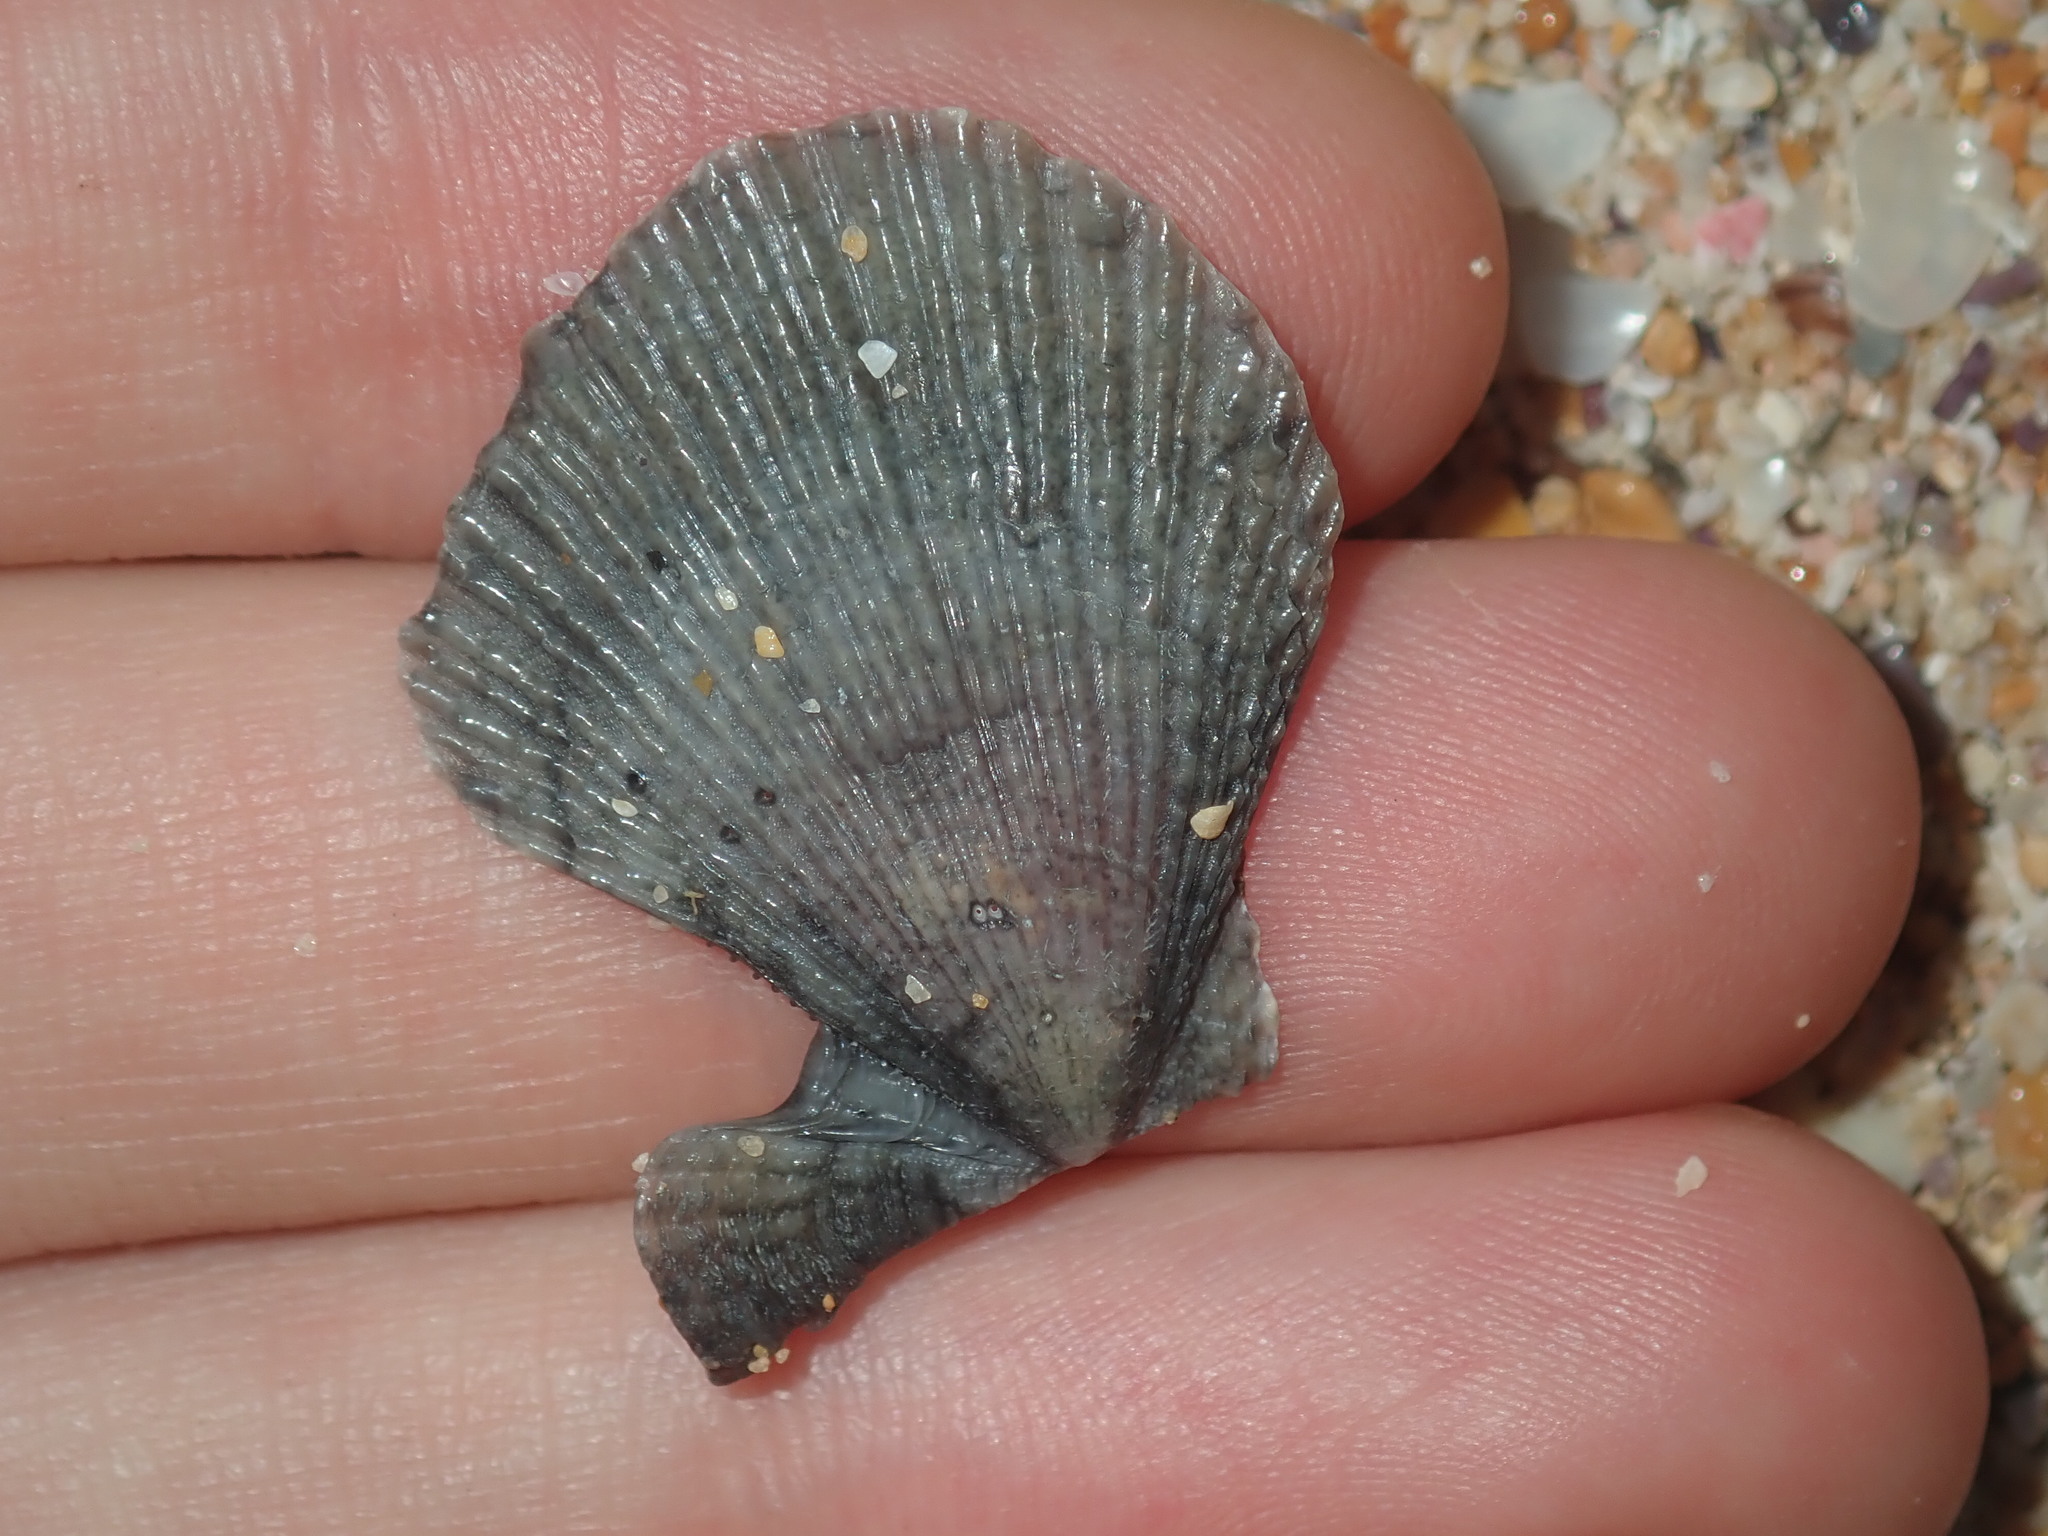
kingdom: Animalia
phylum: Mollusca
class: Bivalvia
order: Pectinida
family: Pectinidae
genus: Scaeochlamys
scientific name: Scaeochlamys livida
